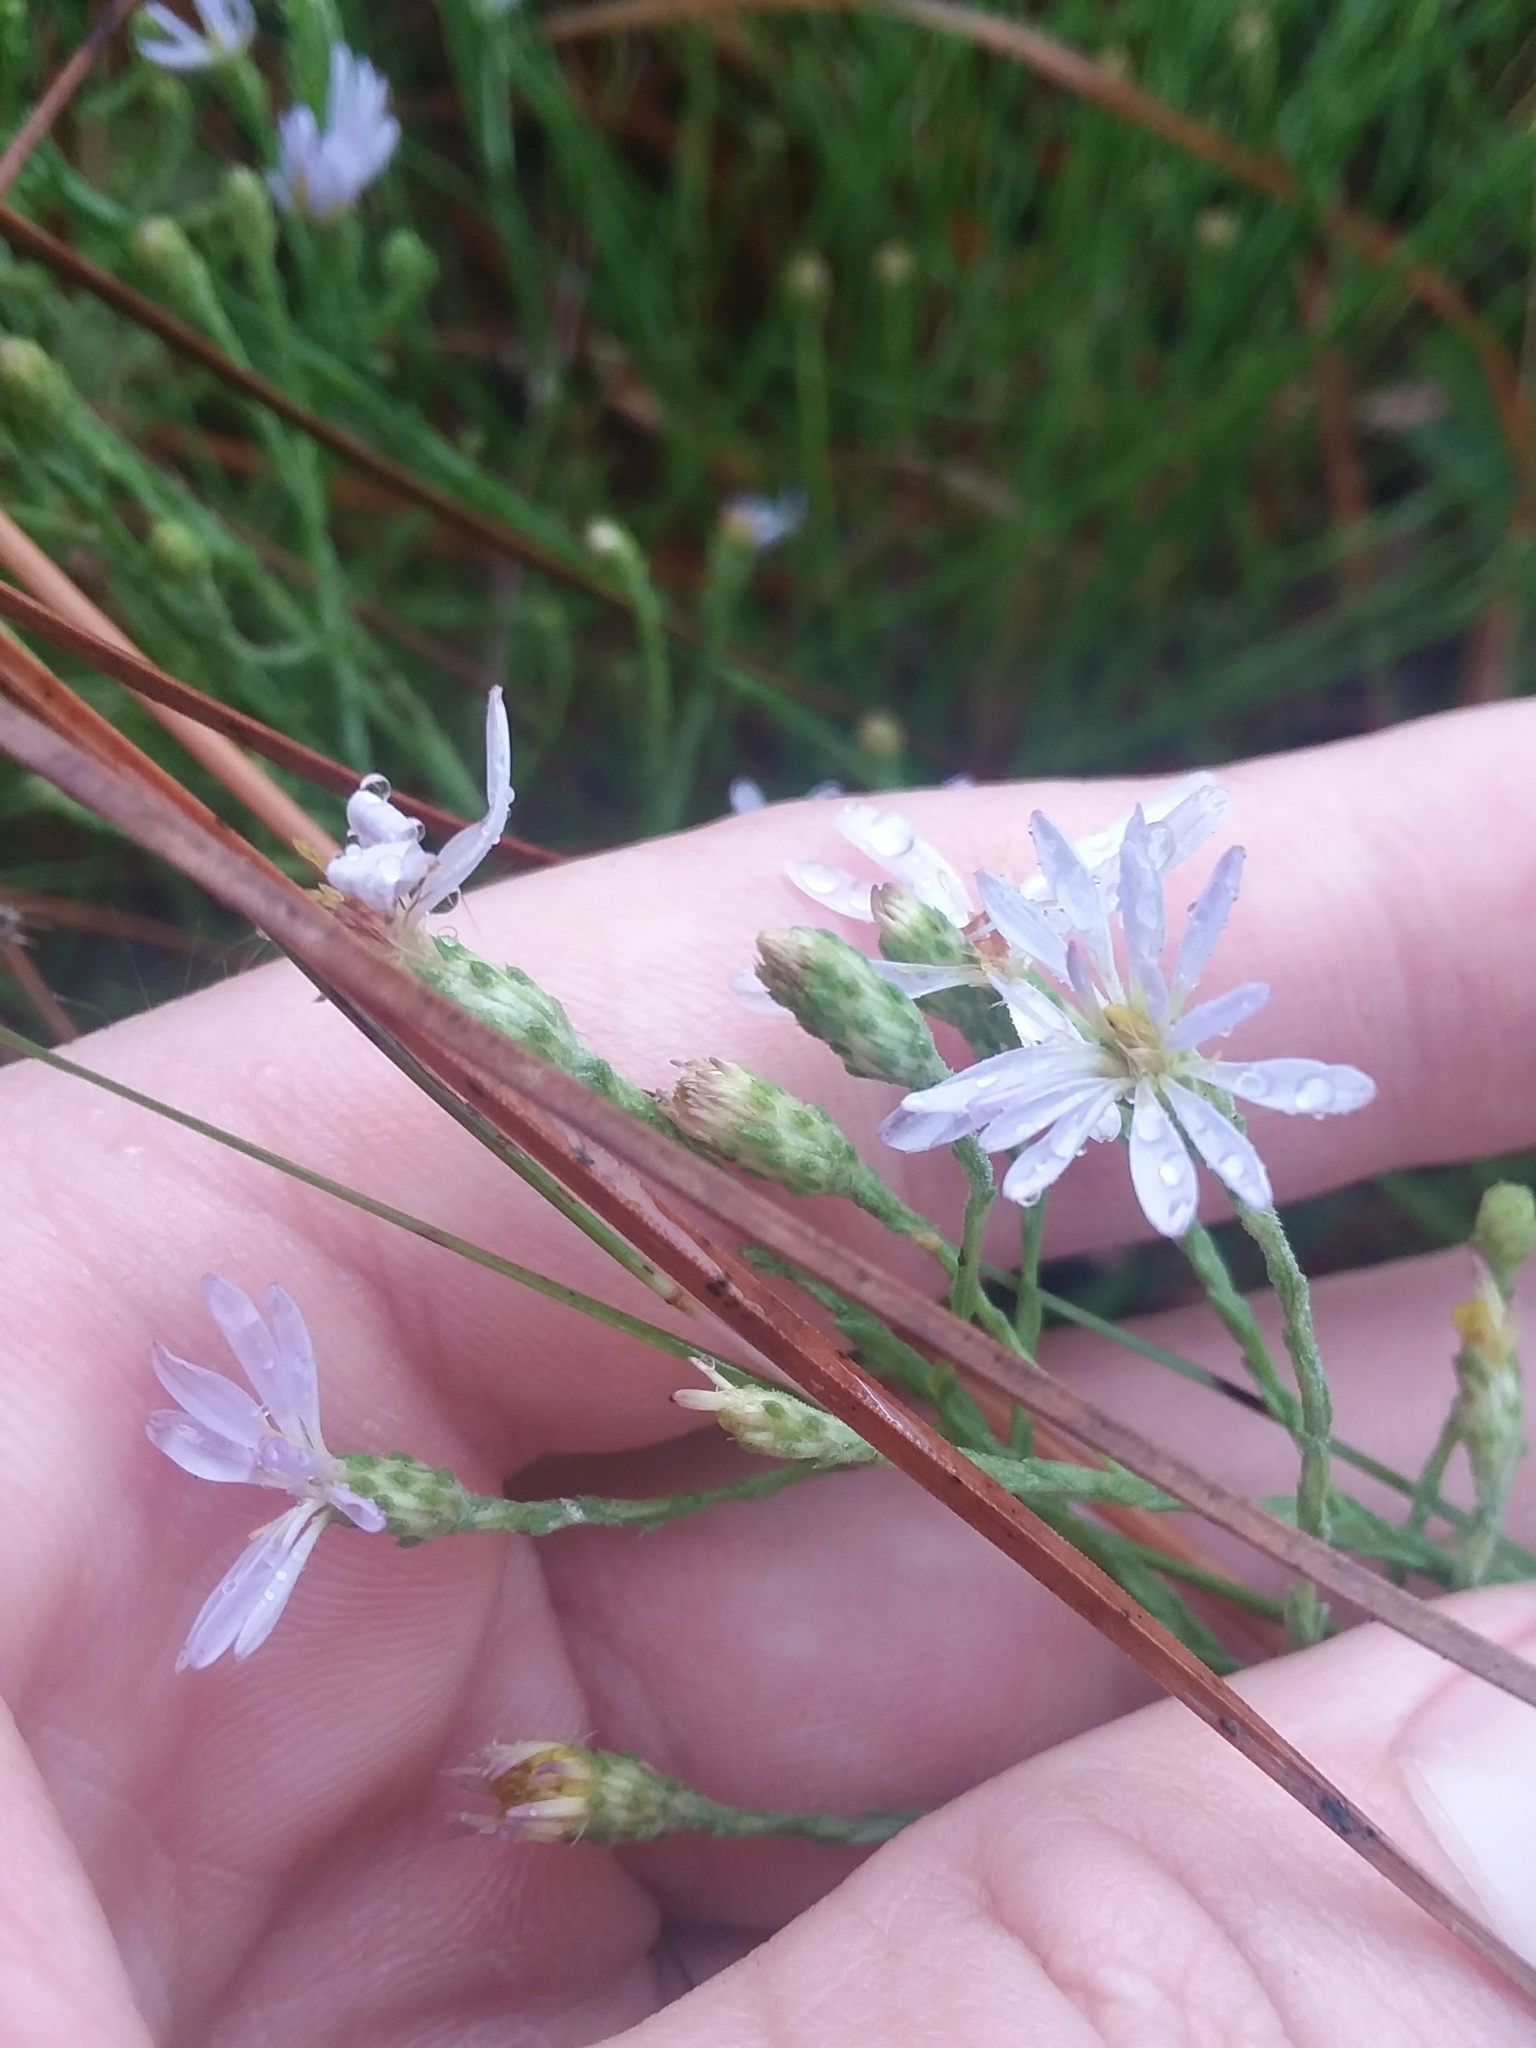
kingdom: Plantae
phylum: Tracheophyta
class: Magnoliopsida
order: Asterales
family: Asteraceae
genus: Symphyotrichum
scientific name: Symphyotrichum adnatum
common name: Scale-leaf aster
